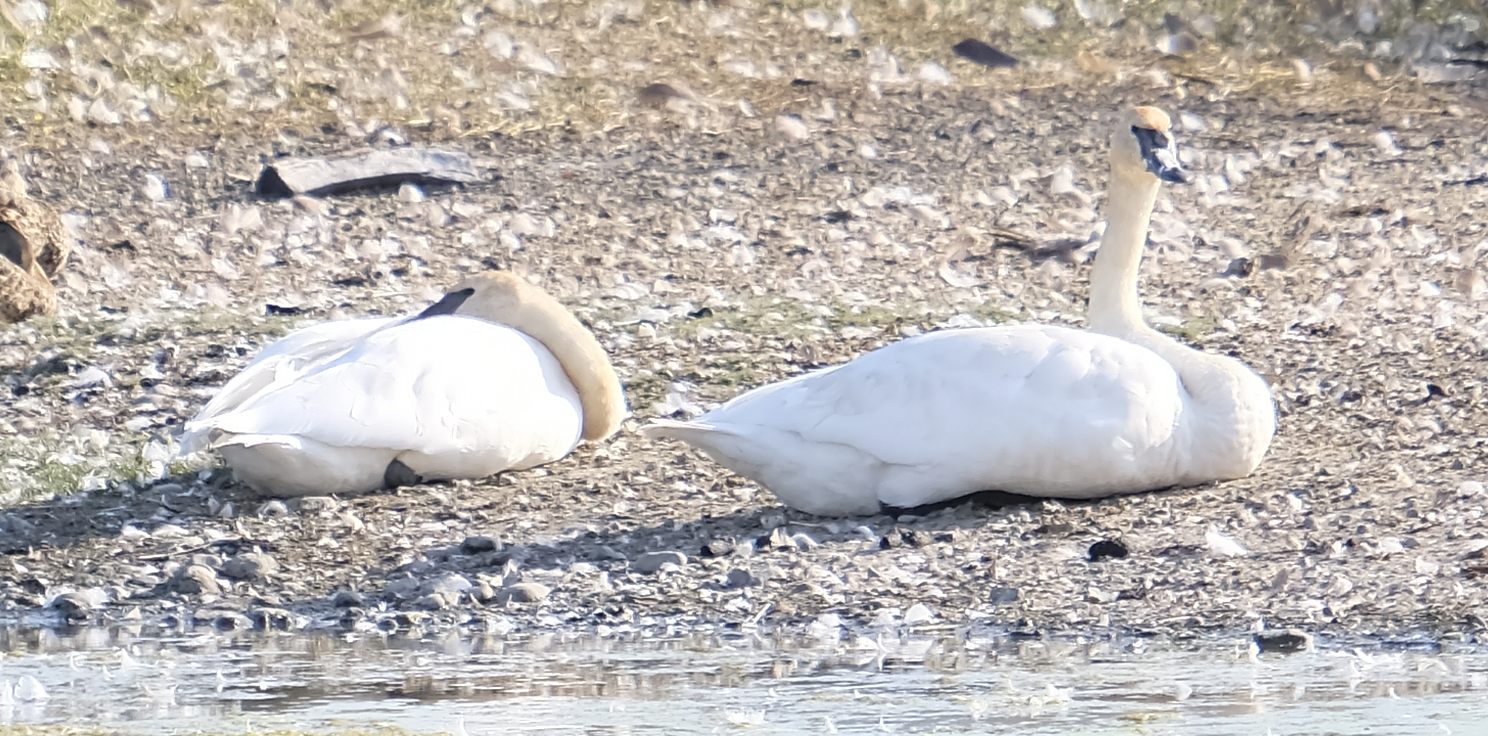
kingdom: Animalia
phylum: Chordata
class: Aves
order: Anseriformes
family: Anatidae
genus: Cygnus
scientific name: Cygnus buccinator
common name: Trumpeter swan
